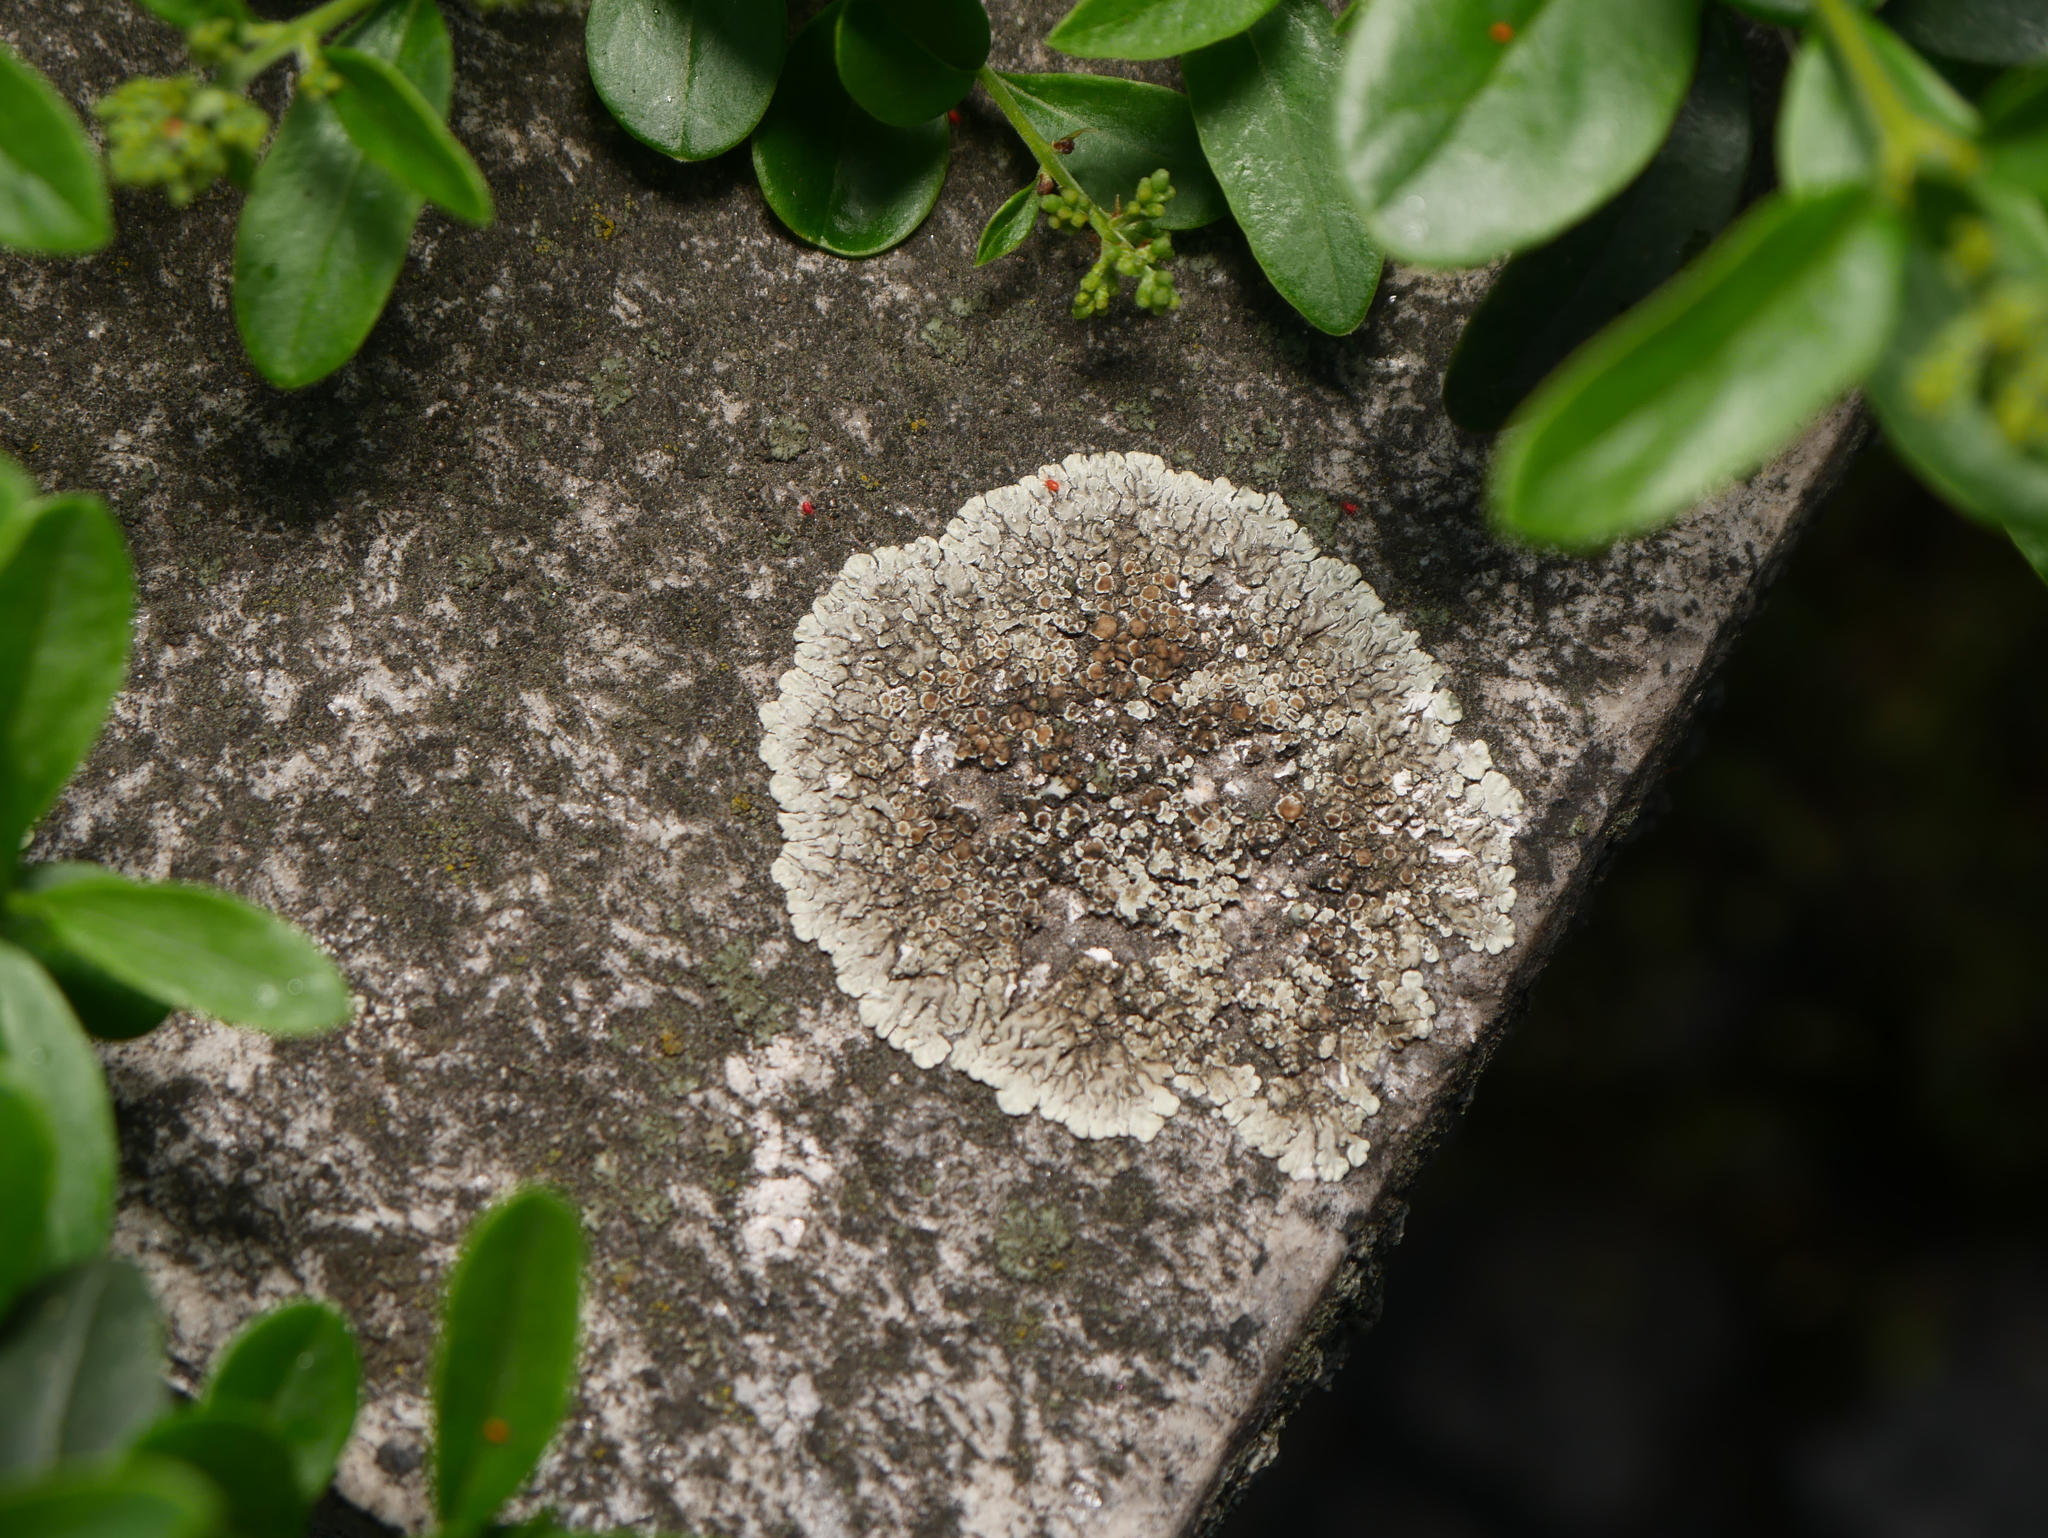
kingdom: Fungi
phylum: Ascomycota
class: Lecanoromycetes
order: Lecanorales
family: Lecanoraceae
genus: Protoparmeliopsis
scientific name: Protoparmeliopsis muralis
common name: Stonewall rim lichen
